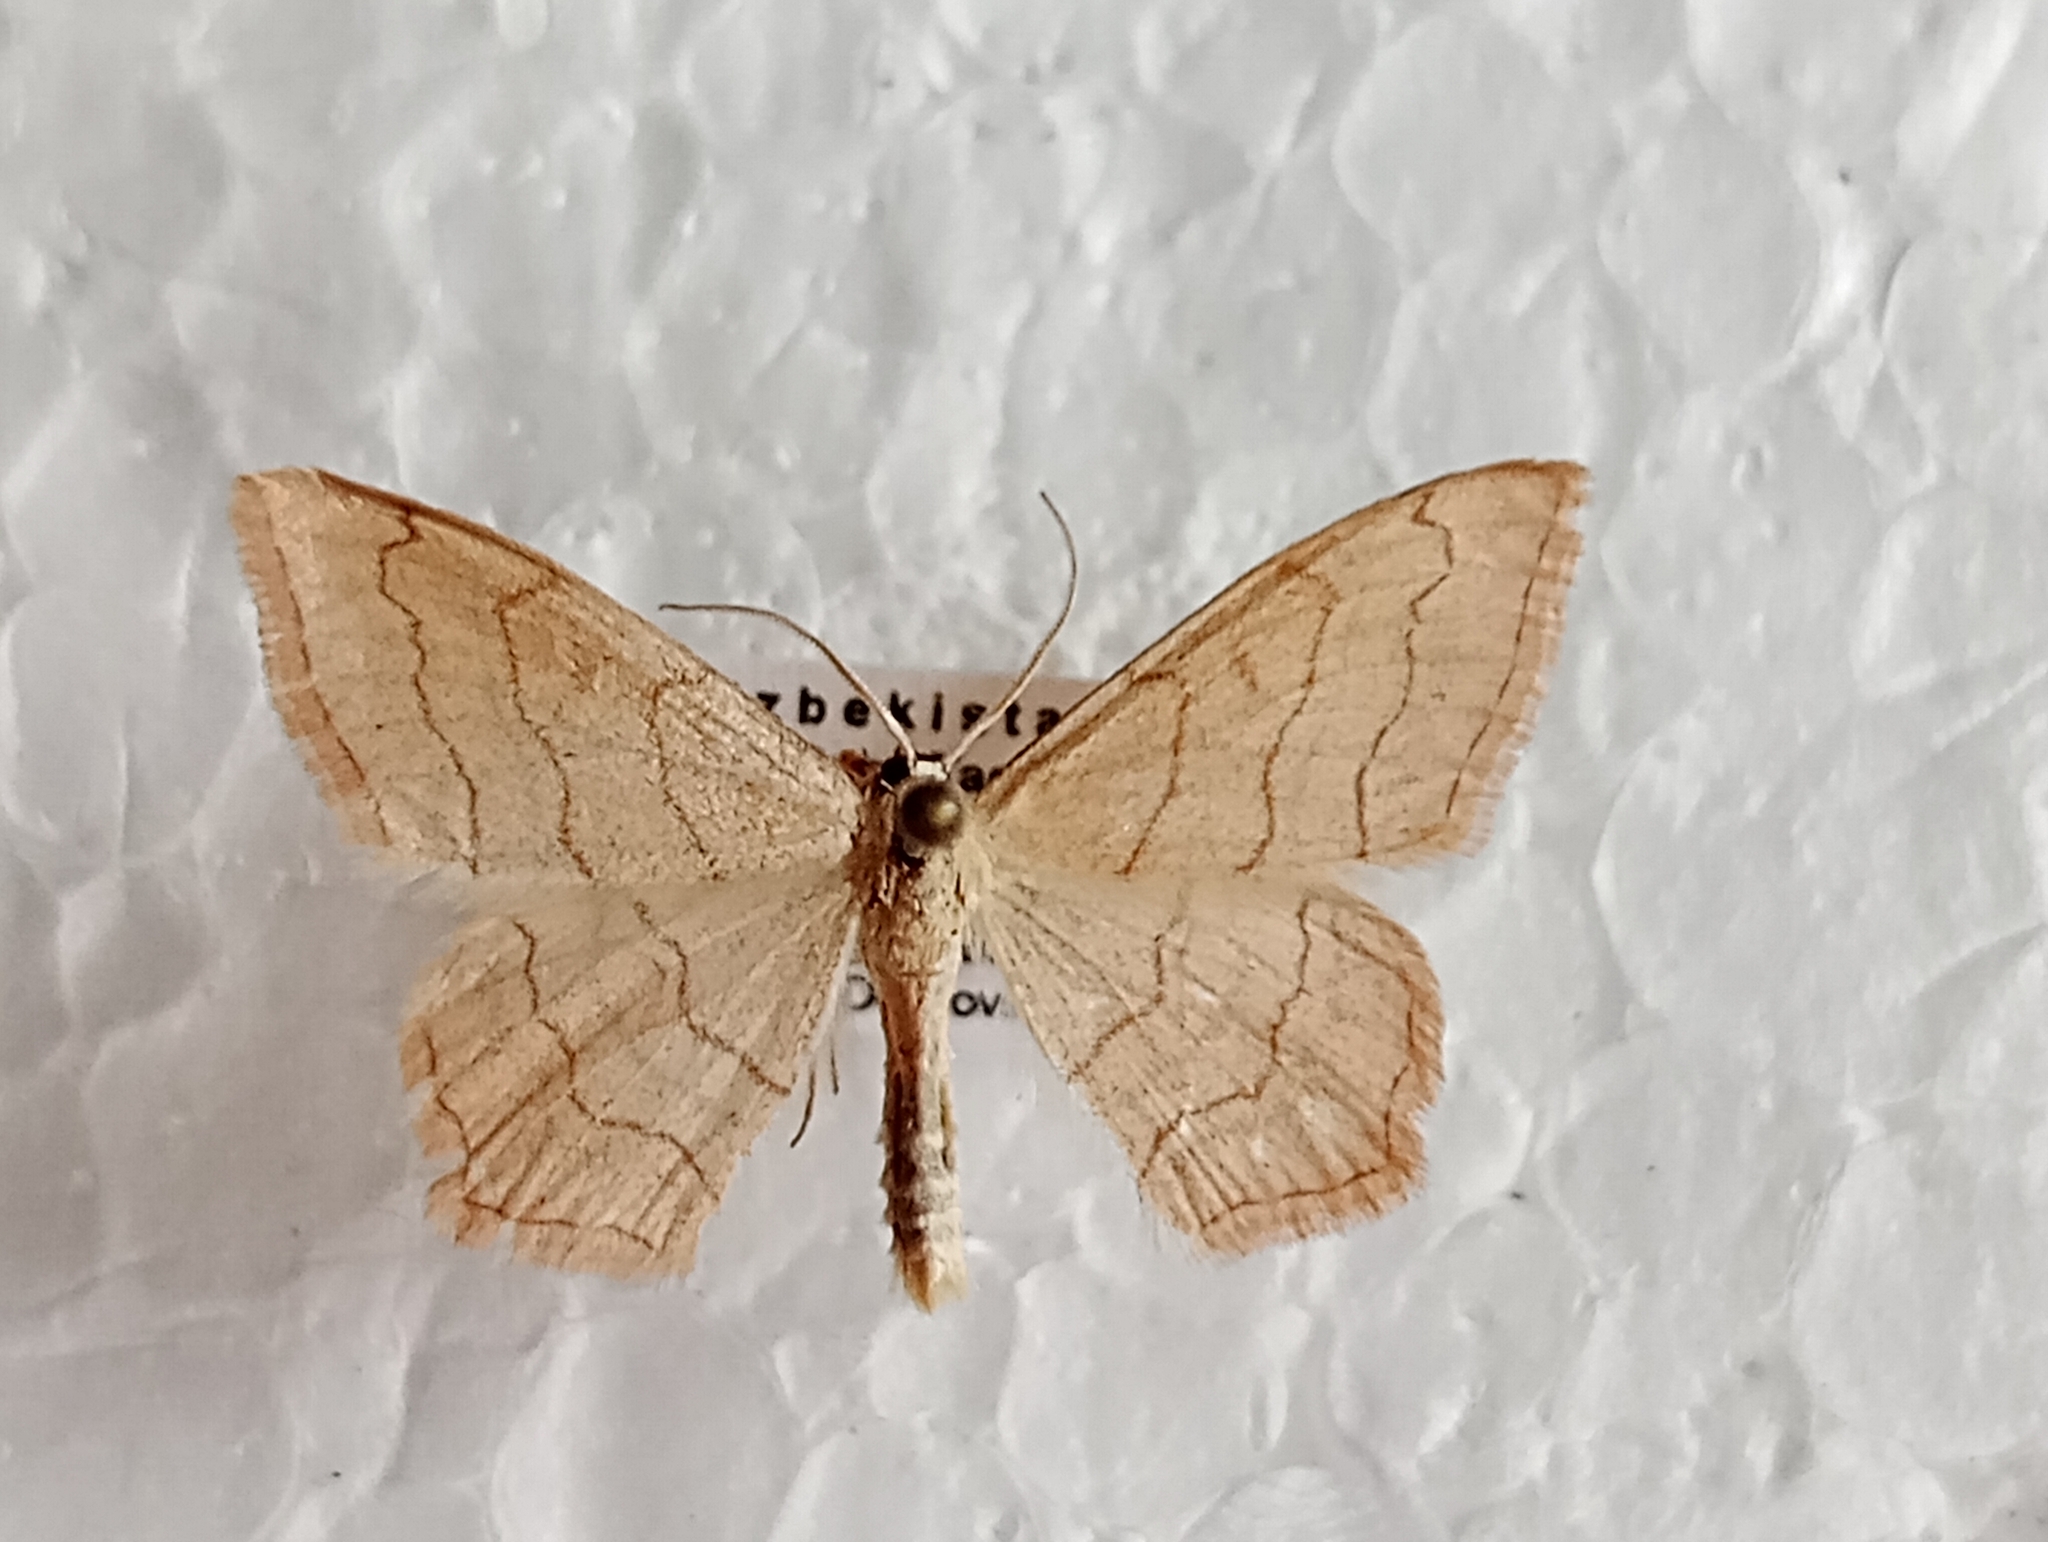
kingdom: Animalia
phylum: Arthropoda
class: Insecta
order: Lepidoptera
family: Geometridae
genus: Scopula
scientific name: Scopula ansulata
